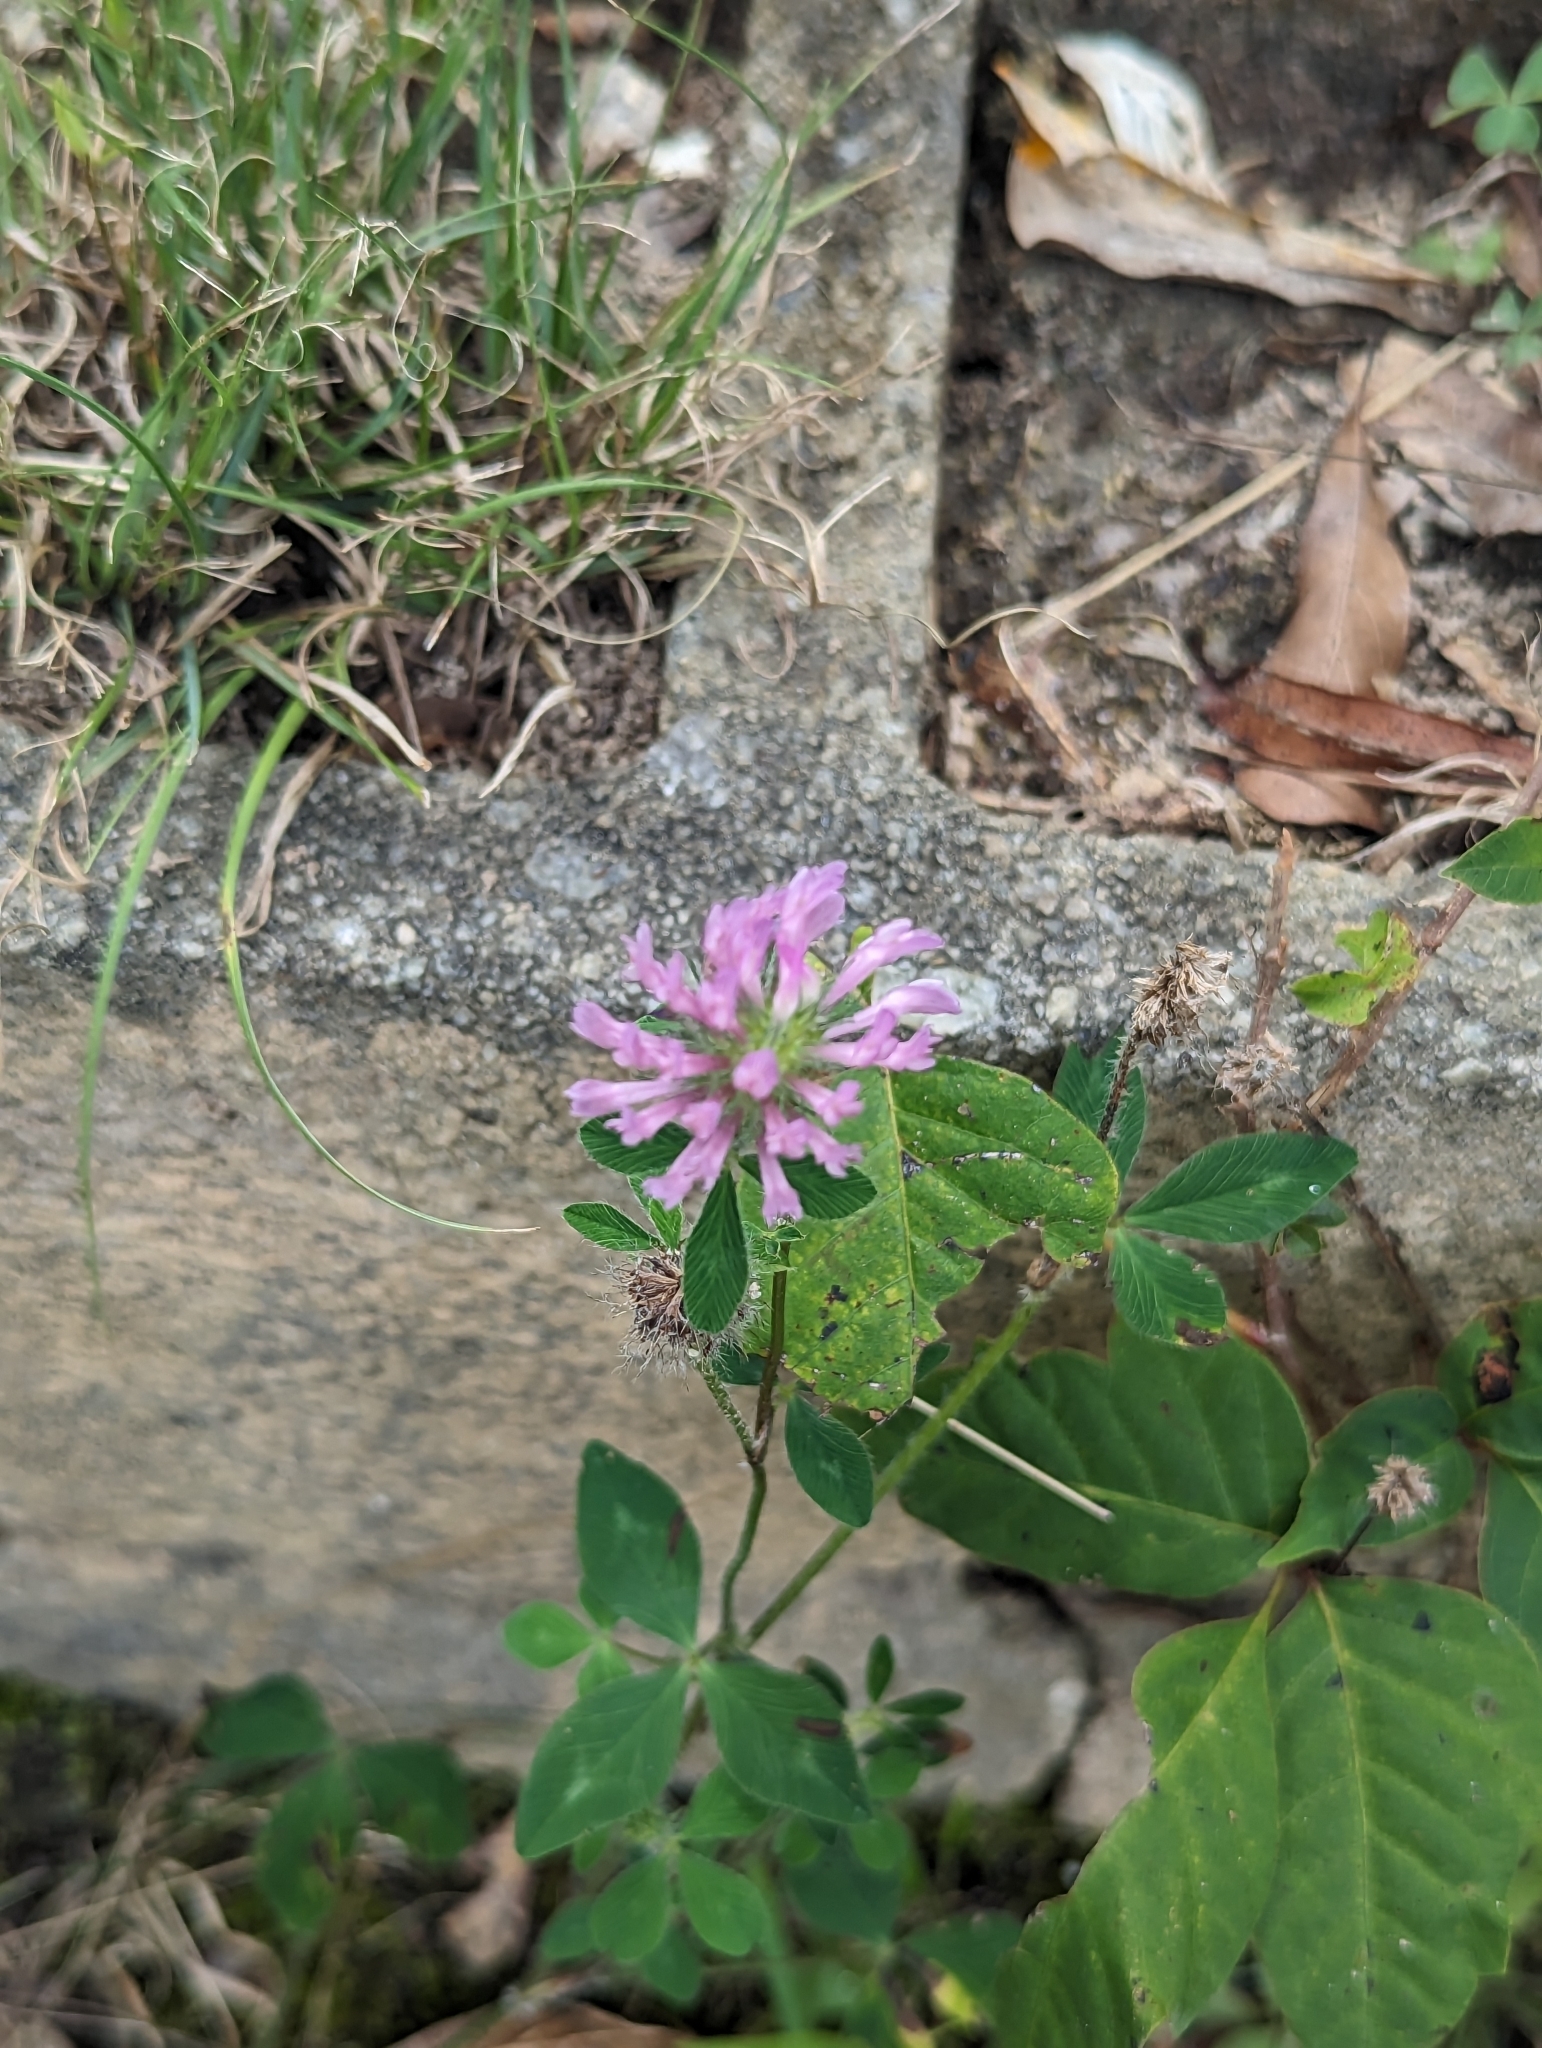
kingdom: Plantae
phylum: Tracheophyta
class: Magnoliopsida
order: Fabales
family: Fabaceae
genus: Trifolium
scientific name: Trifolium pratense
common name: Red clover
